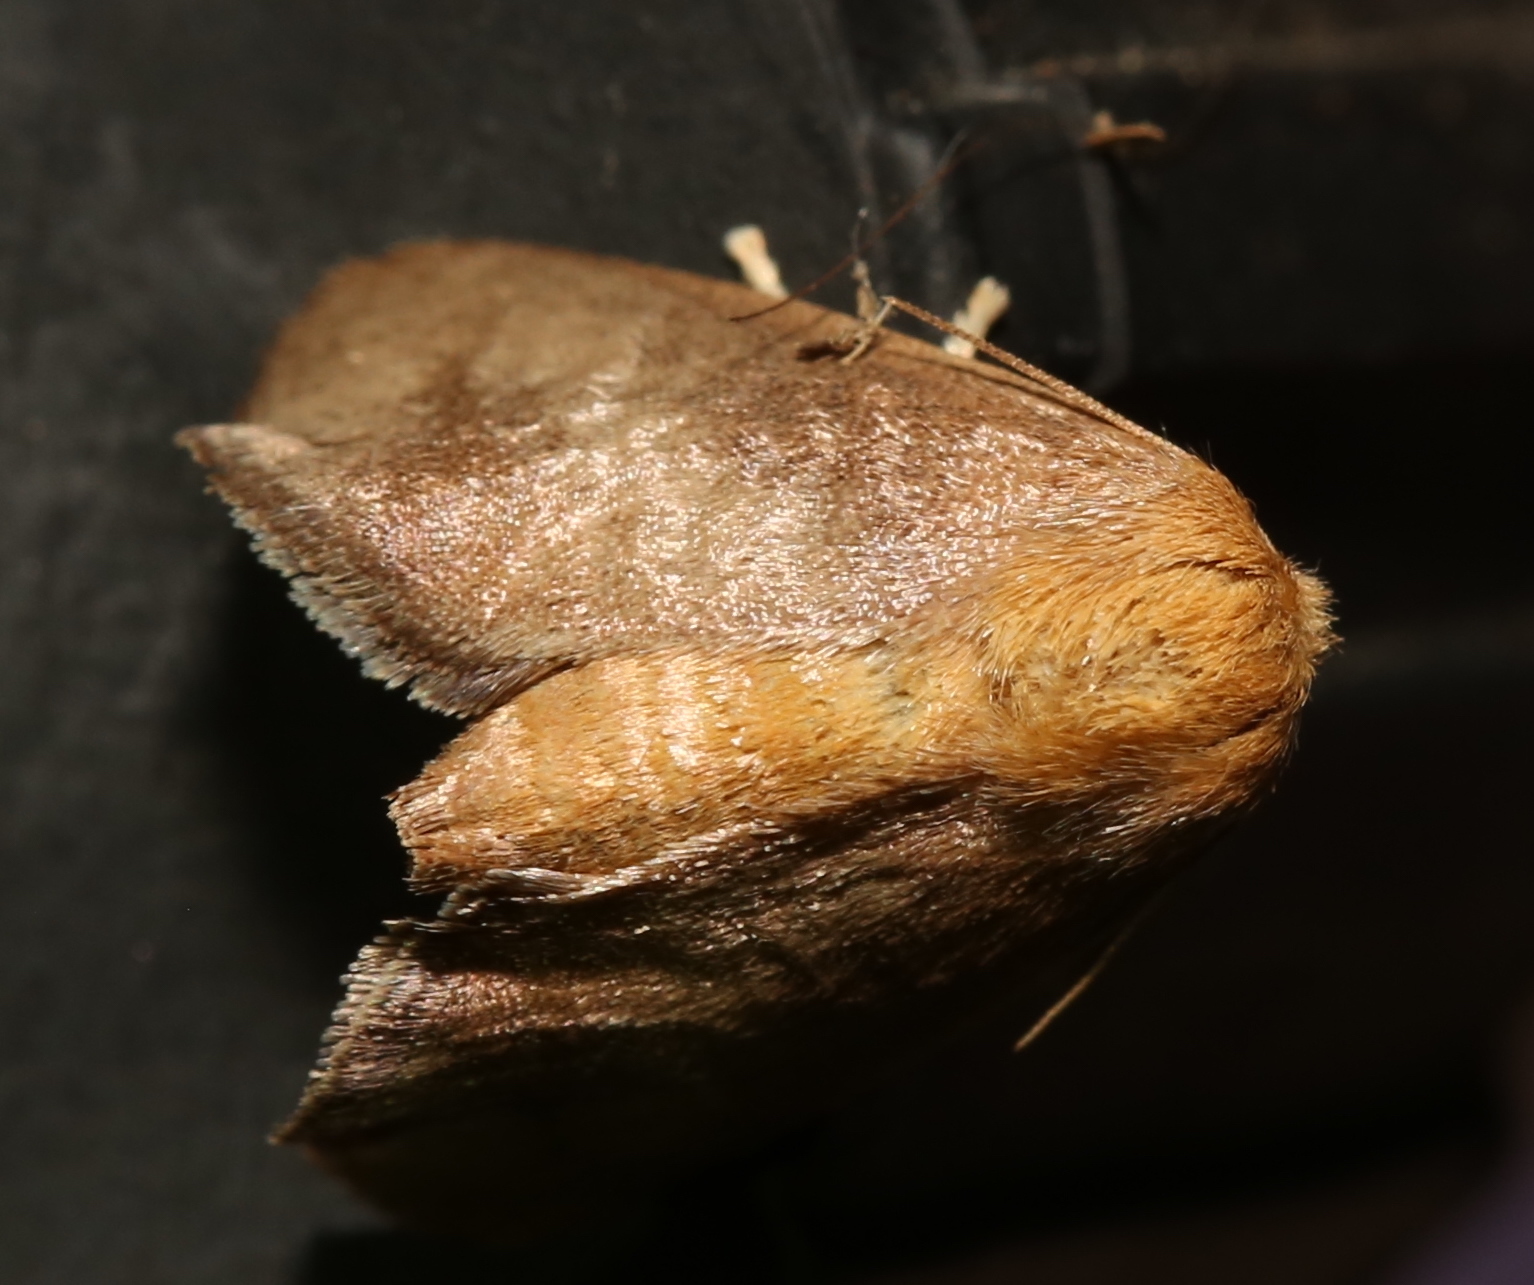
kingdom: Animalia
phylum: Arthropoda
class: Insecta
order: Lepidoptera
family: Limacodidae
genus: Isa
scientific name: Isa textula
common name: Crowned slug moth
